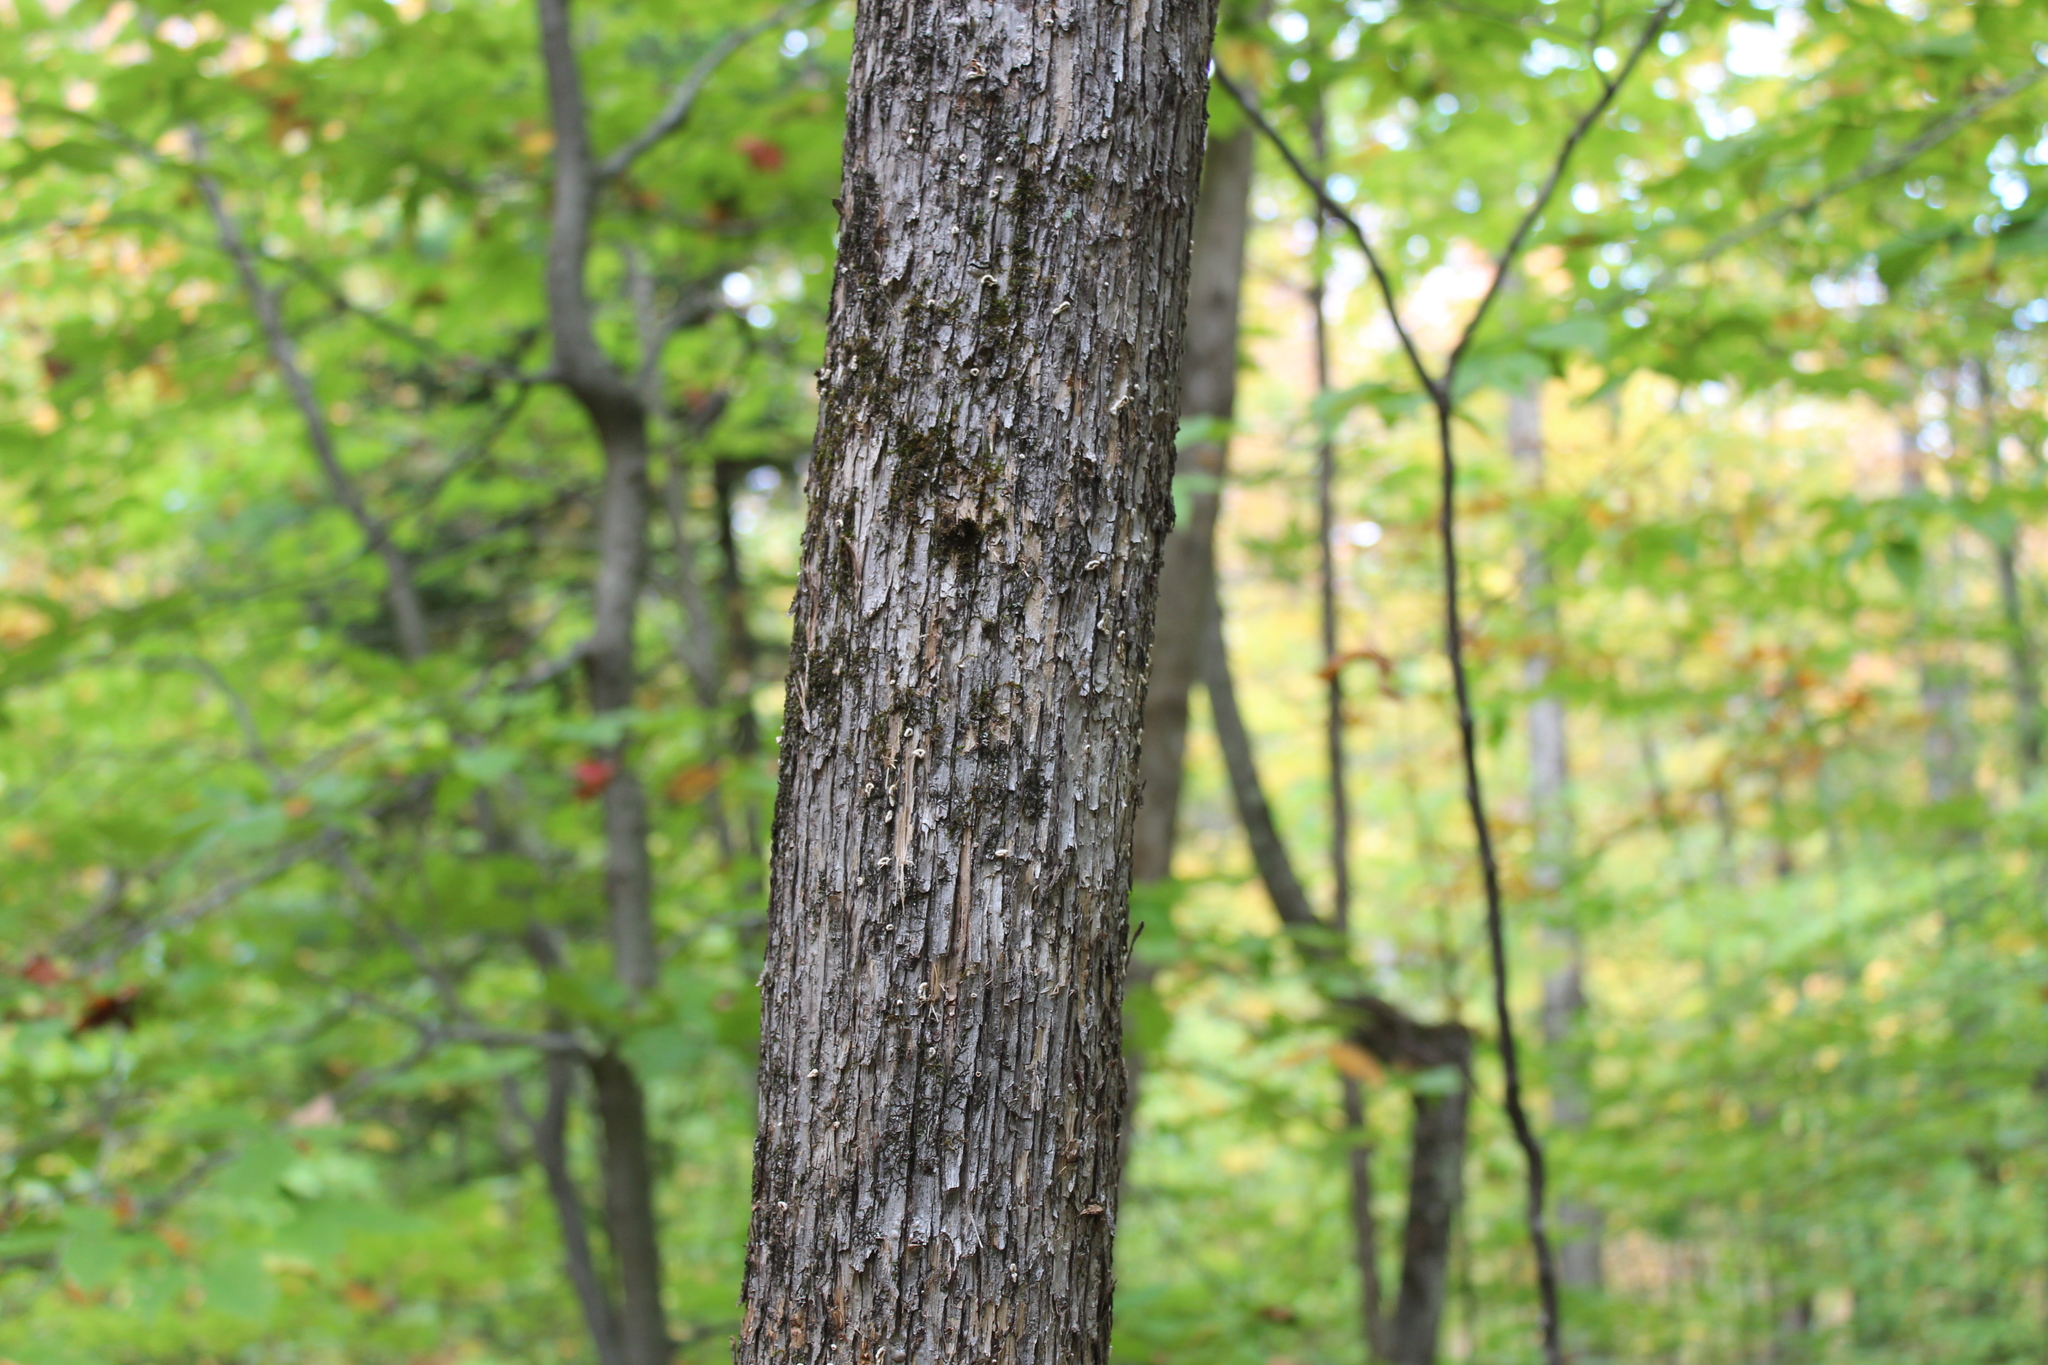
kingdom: Plantae
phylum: Tracheophyta
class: Magnoliopsida
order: Fagales
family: Betulaceae
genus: Ostrya
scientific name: Ostrya virginiana
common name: Ironwood
